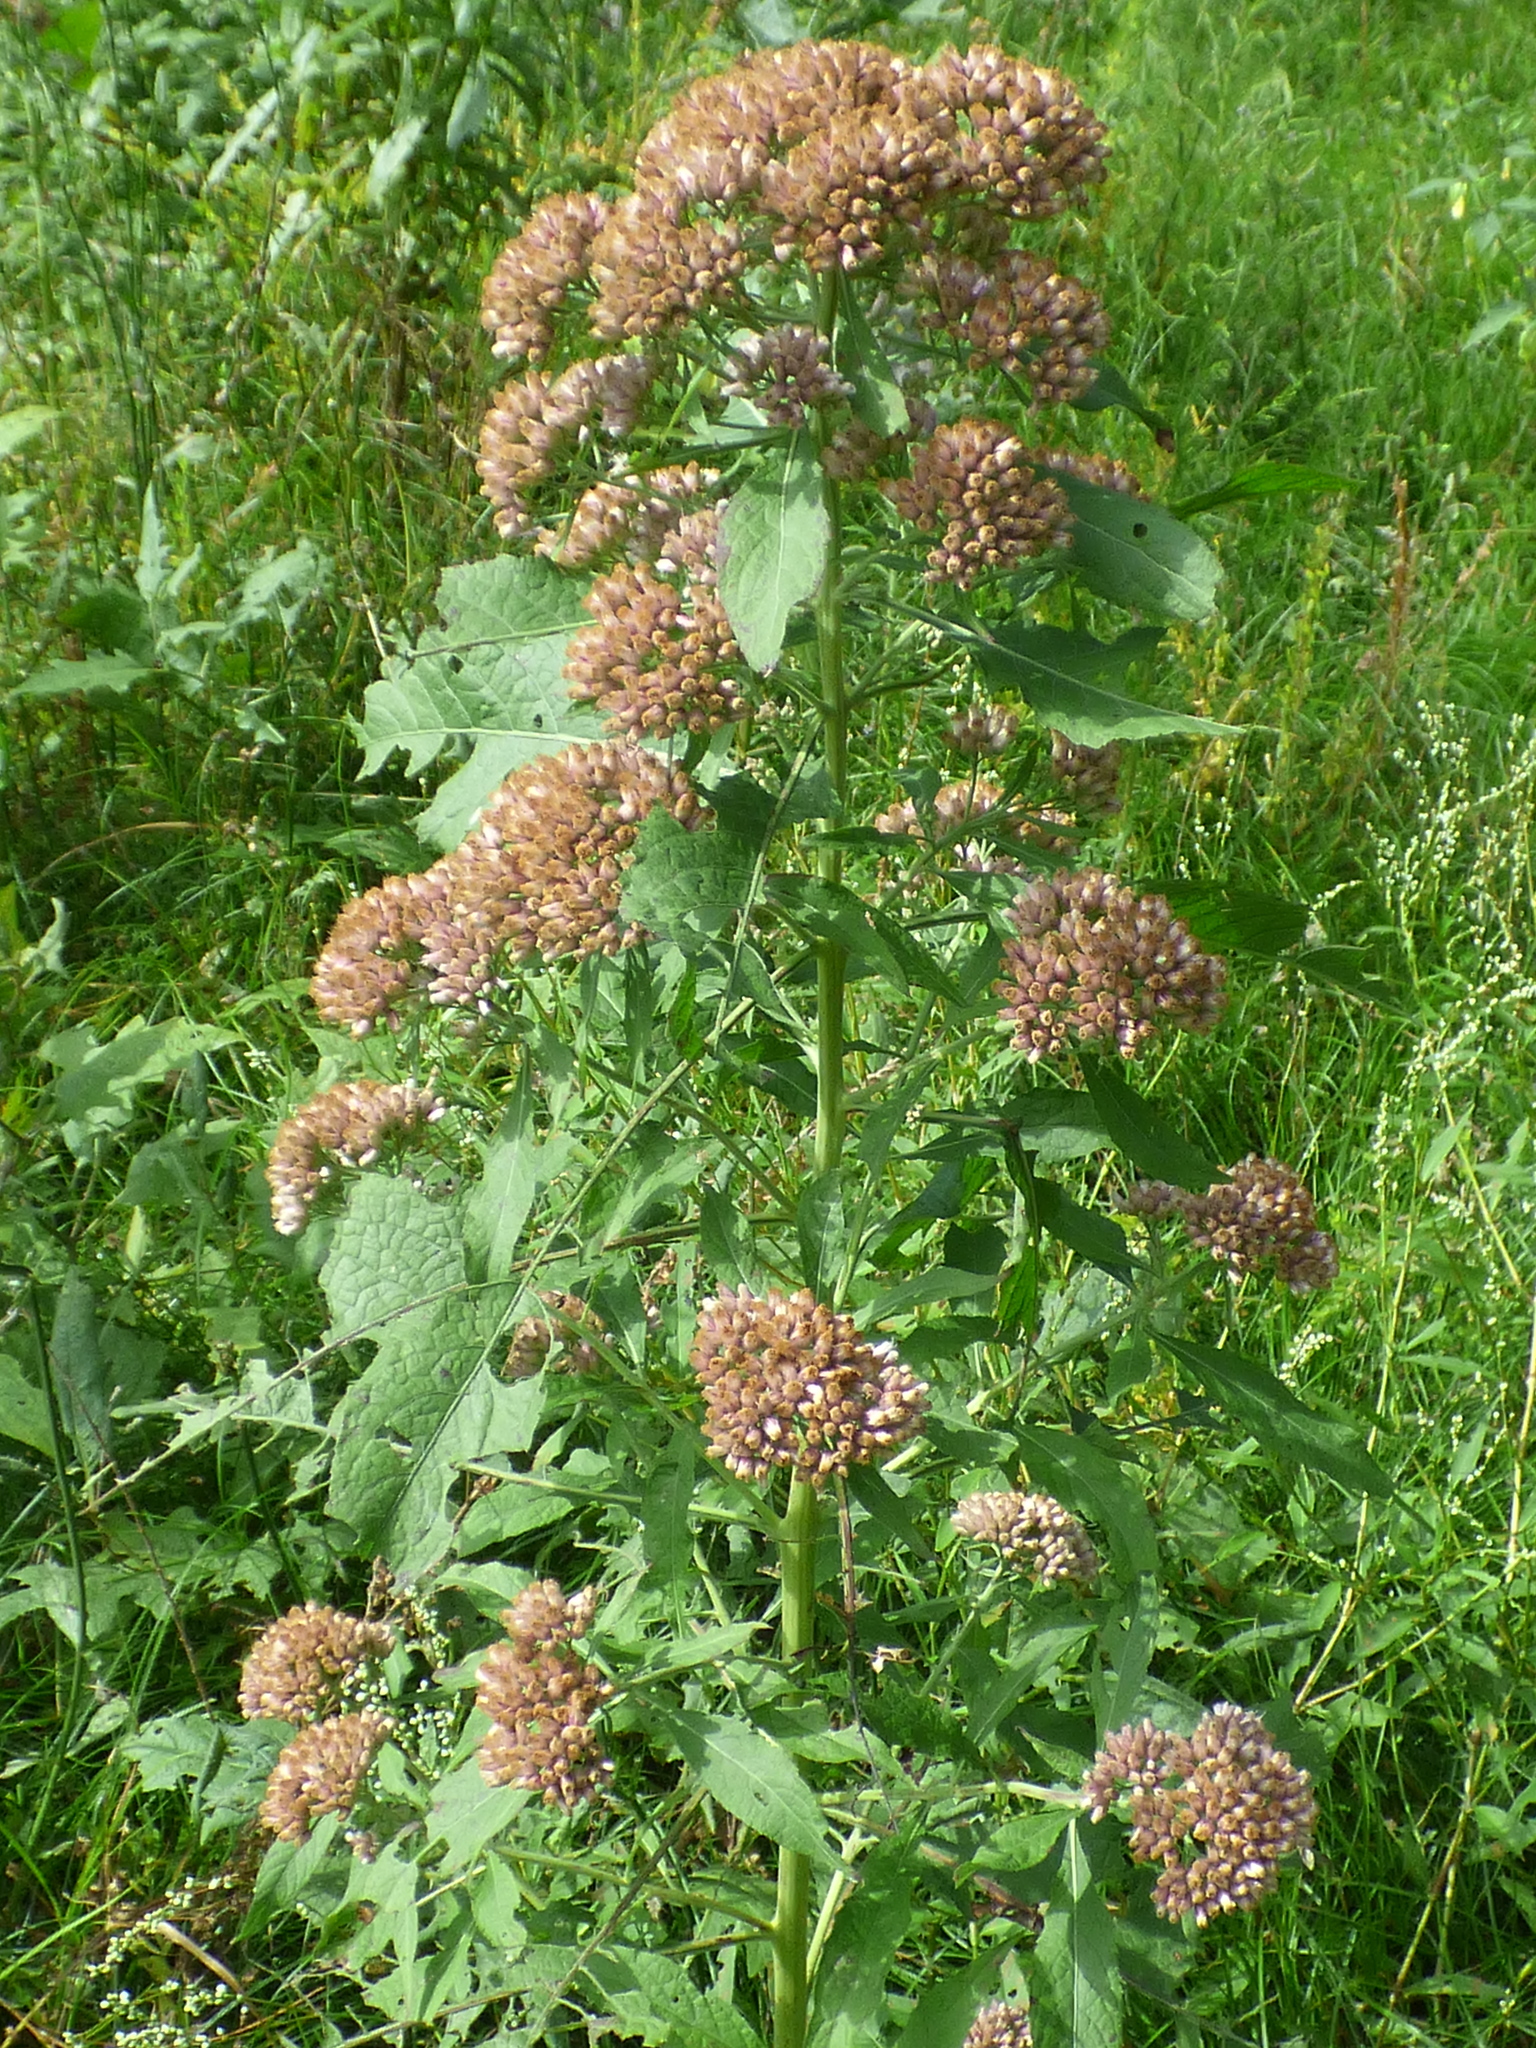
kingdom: Plantae
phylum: Tracheophyta
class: Magnoliopsida
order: Asterales
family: Asteraceae
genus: Pluchea
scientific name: Pluchea camphorata
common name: Camphor pluchea
